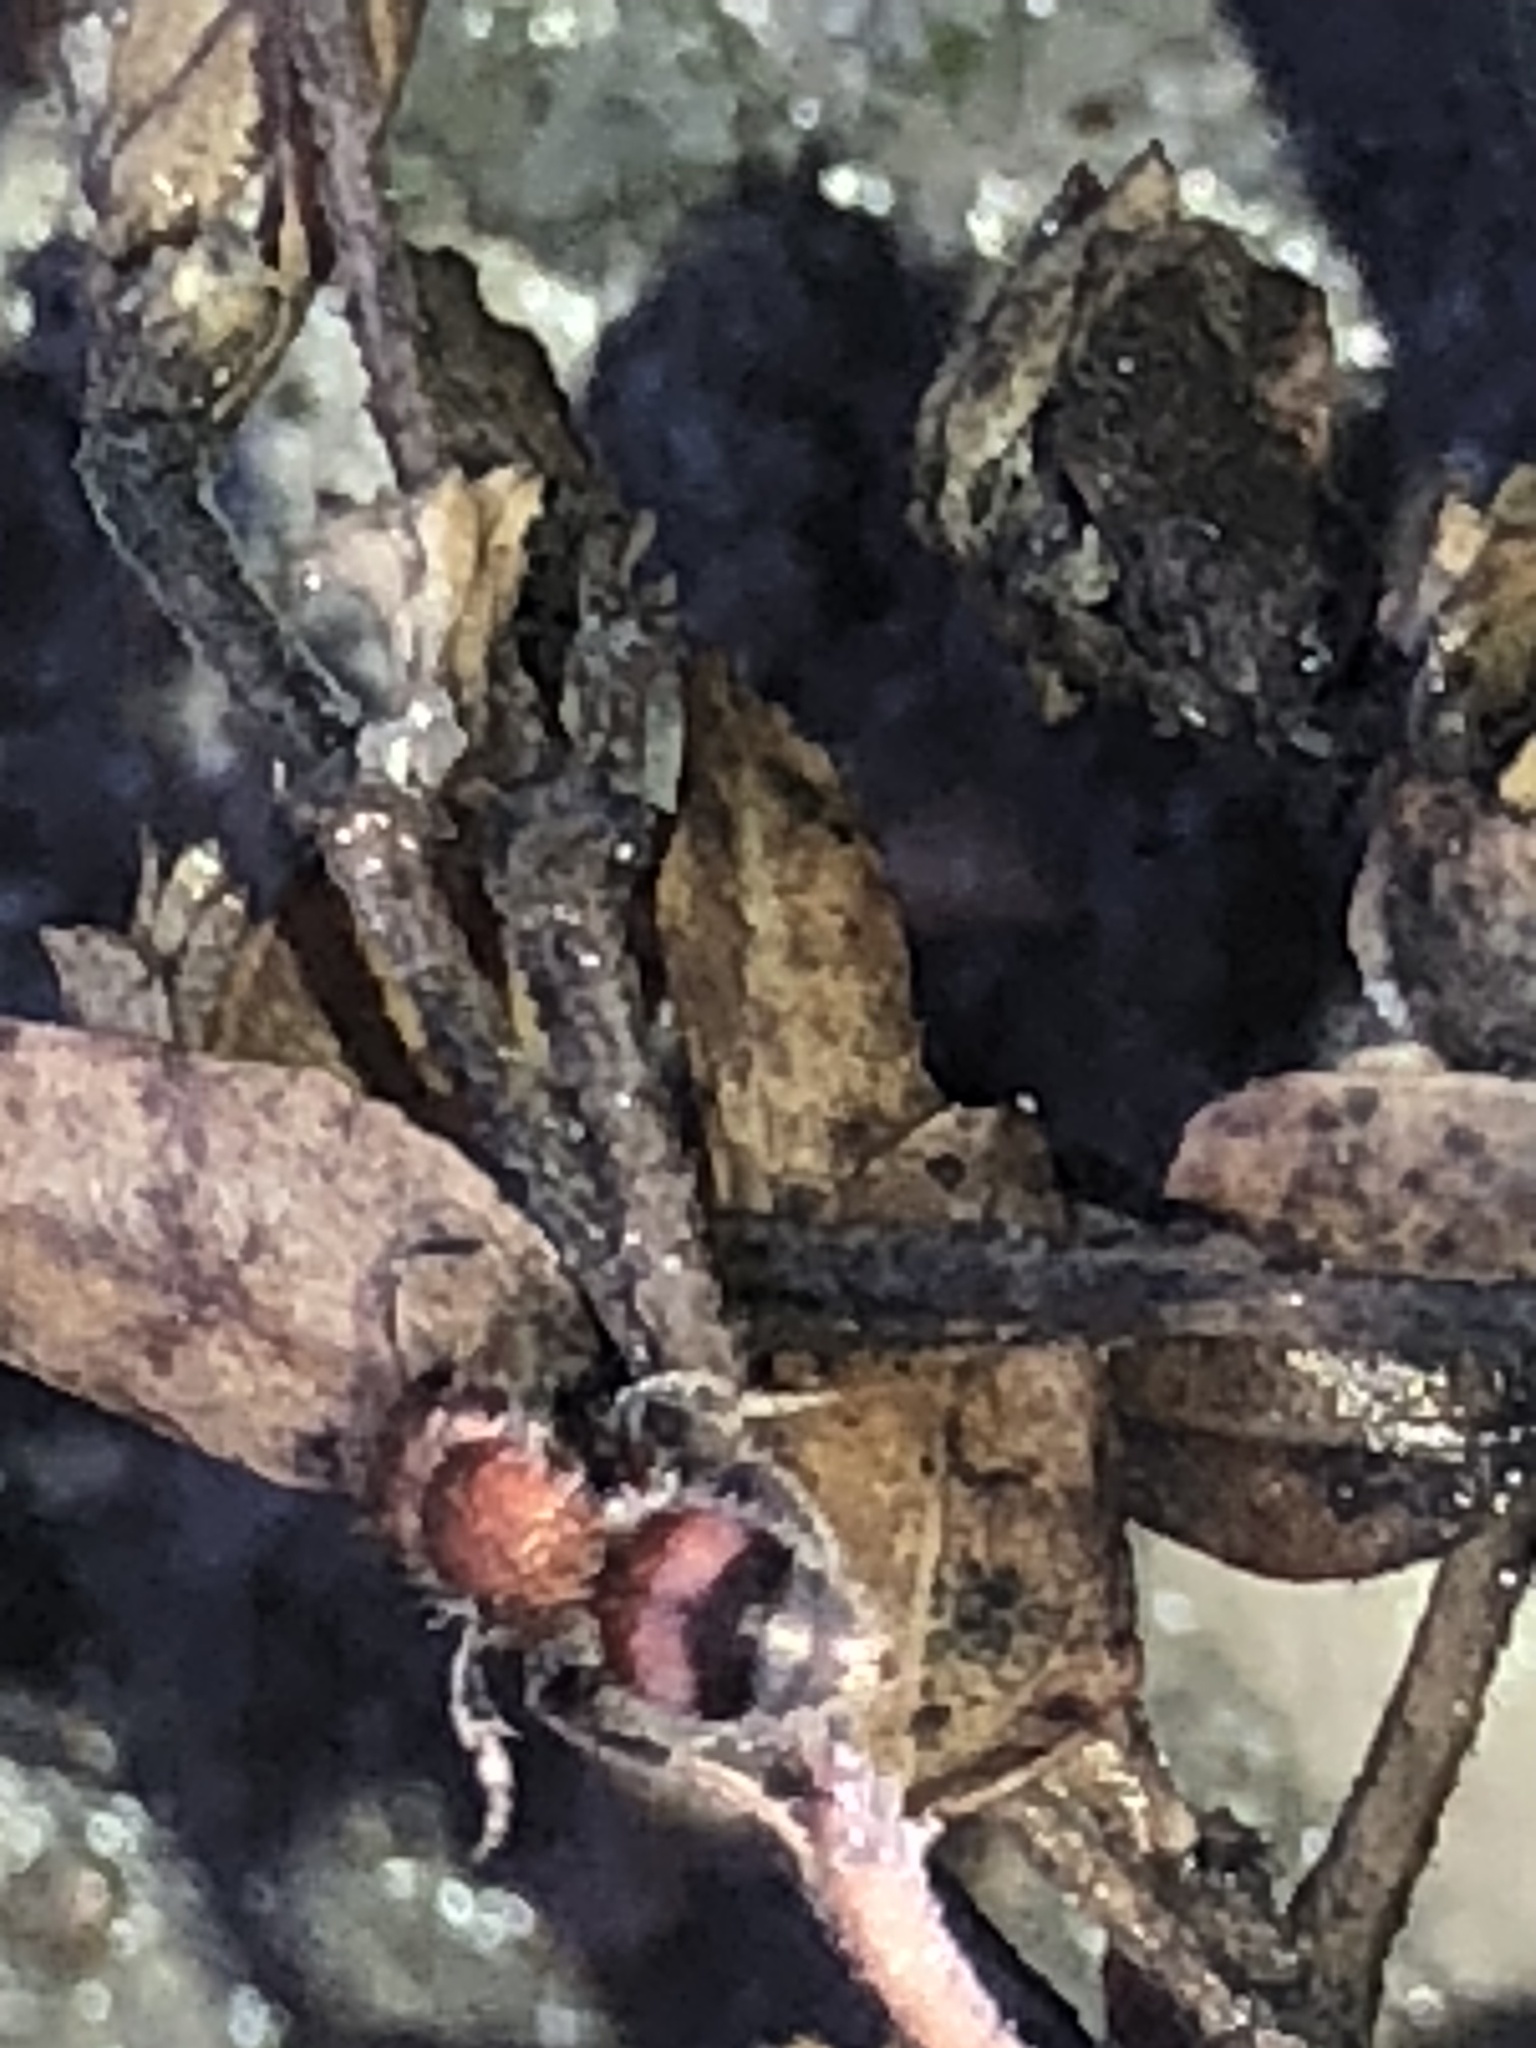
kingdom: Animalia
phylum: Arthropoda
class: Insecta
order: Hymenoptera
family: Mutillidae
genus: Pseudomethoca
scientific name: Pseudomethoca
